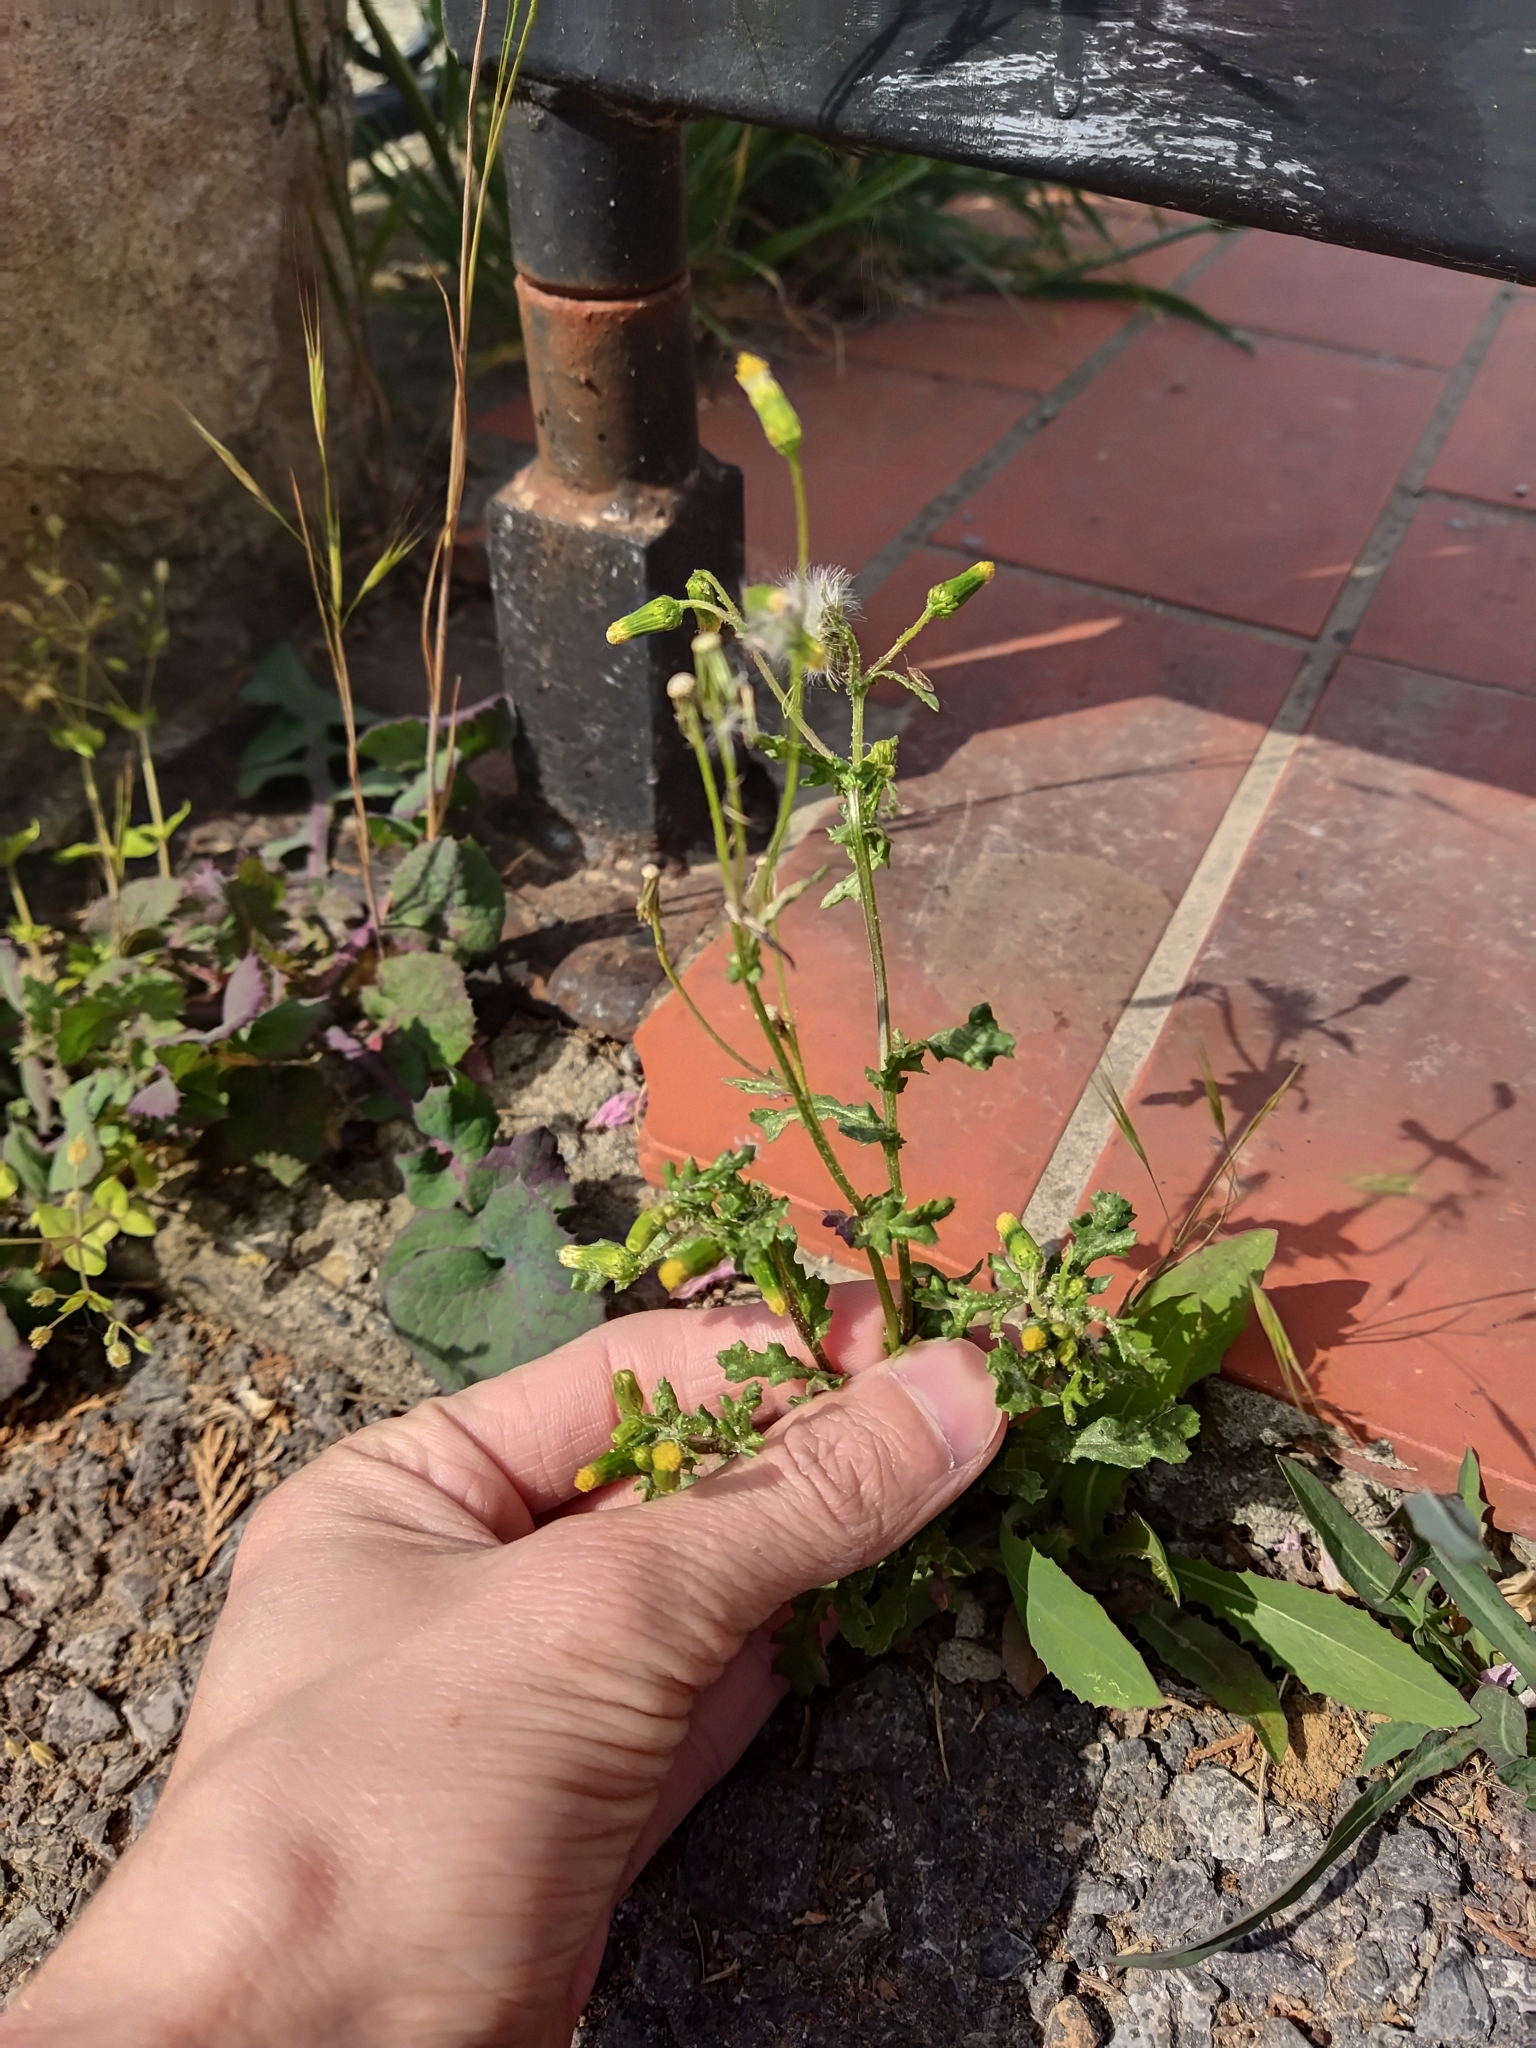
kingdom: Plantae
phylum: Tracheophyta
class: Magnoliopsida
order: Asterales
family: Asteraceae
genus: Senecio
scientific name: Senecio vulgaris
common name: Old-man-in-the-spring
